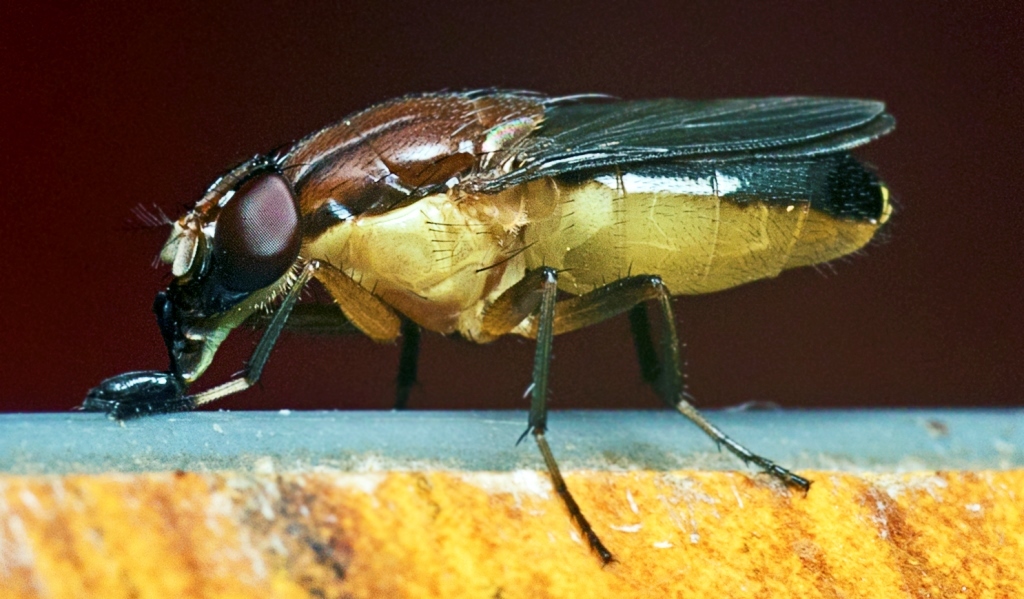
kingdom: Animalia
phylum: Arthropoda
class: Insecta
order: Diptera
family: Calliphoridae
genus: Borbororhinia
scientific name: Borbororhinia bivittata
